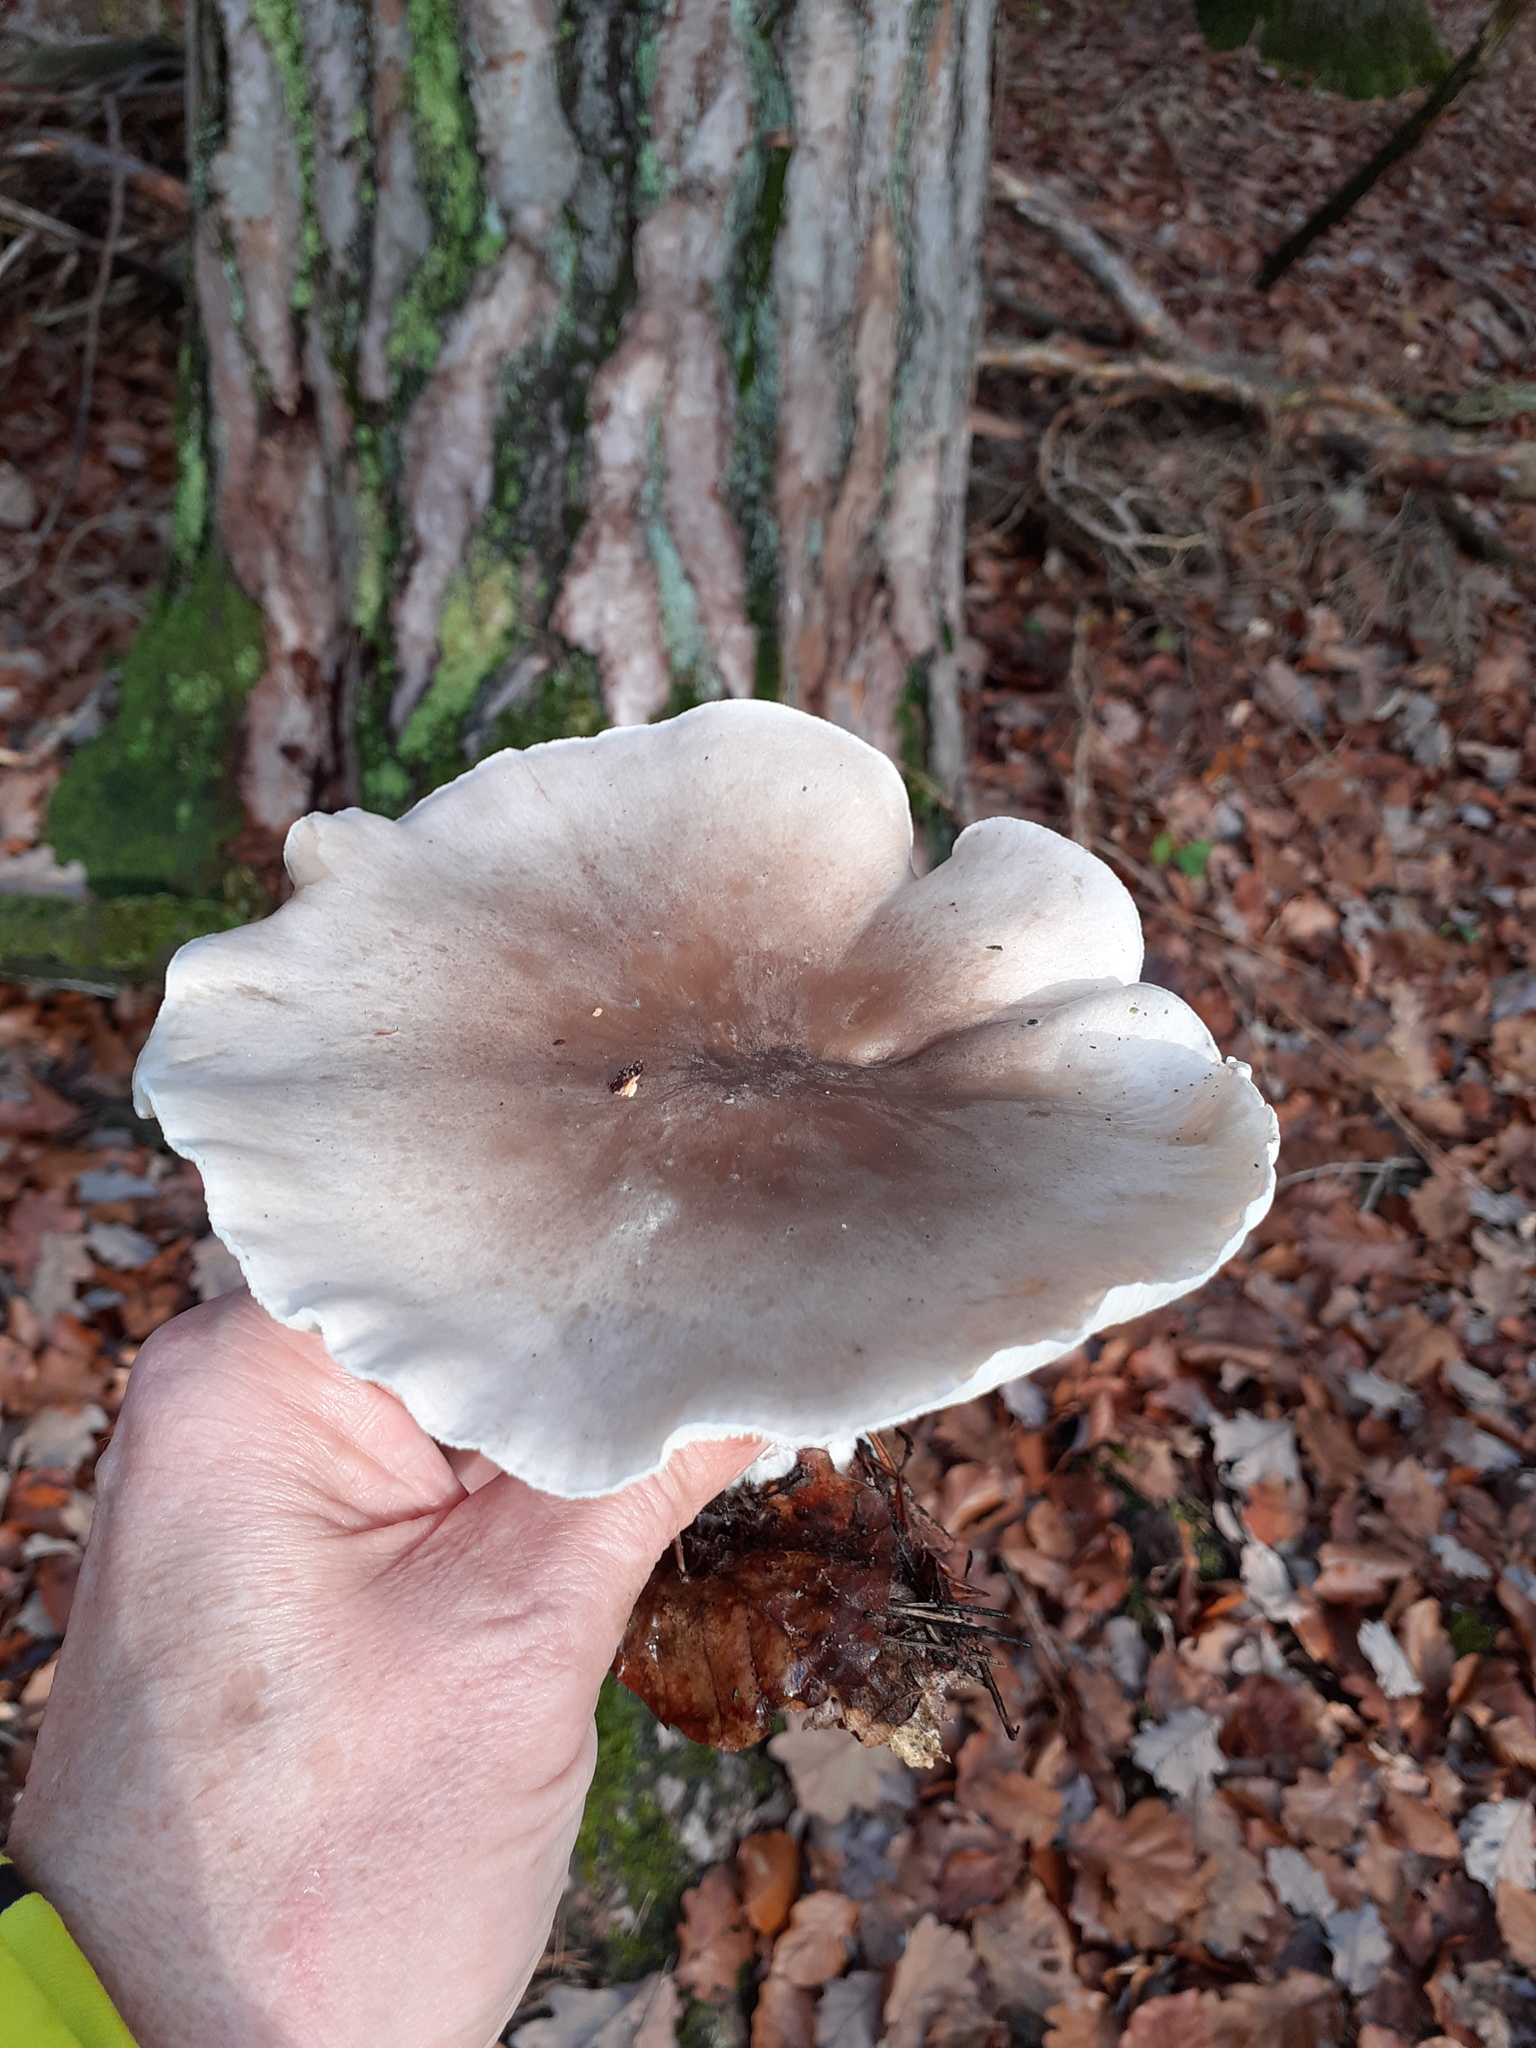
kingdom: Fungi
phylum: Basidiomycota
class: Agaricomycetes
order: Agaricales
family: Tricholomataceae
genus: Clitocybe
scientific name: Clitocybe nebularis
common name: Clouded agaric
